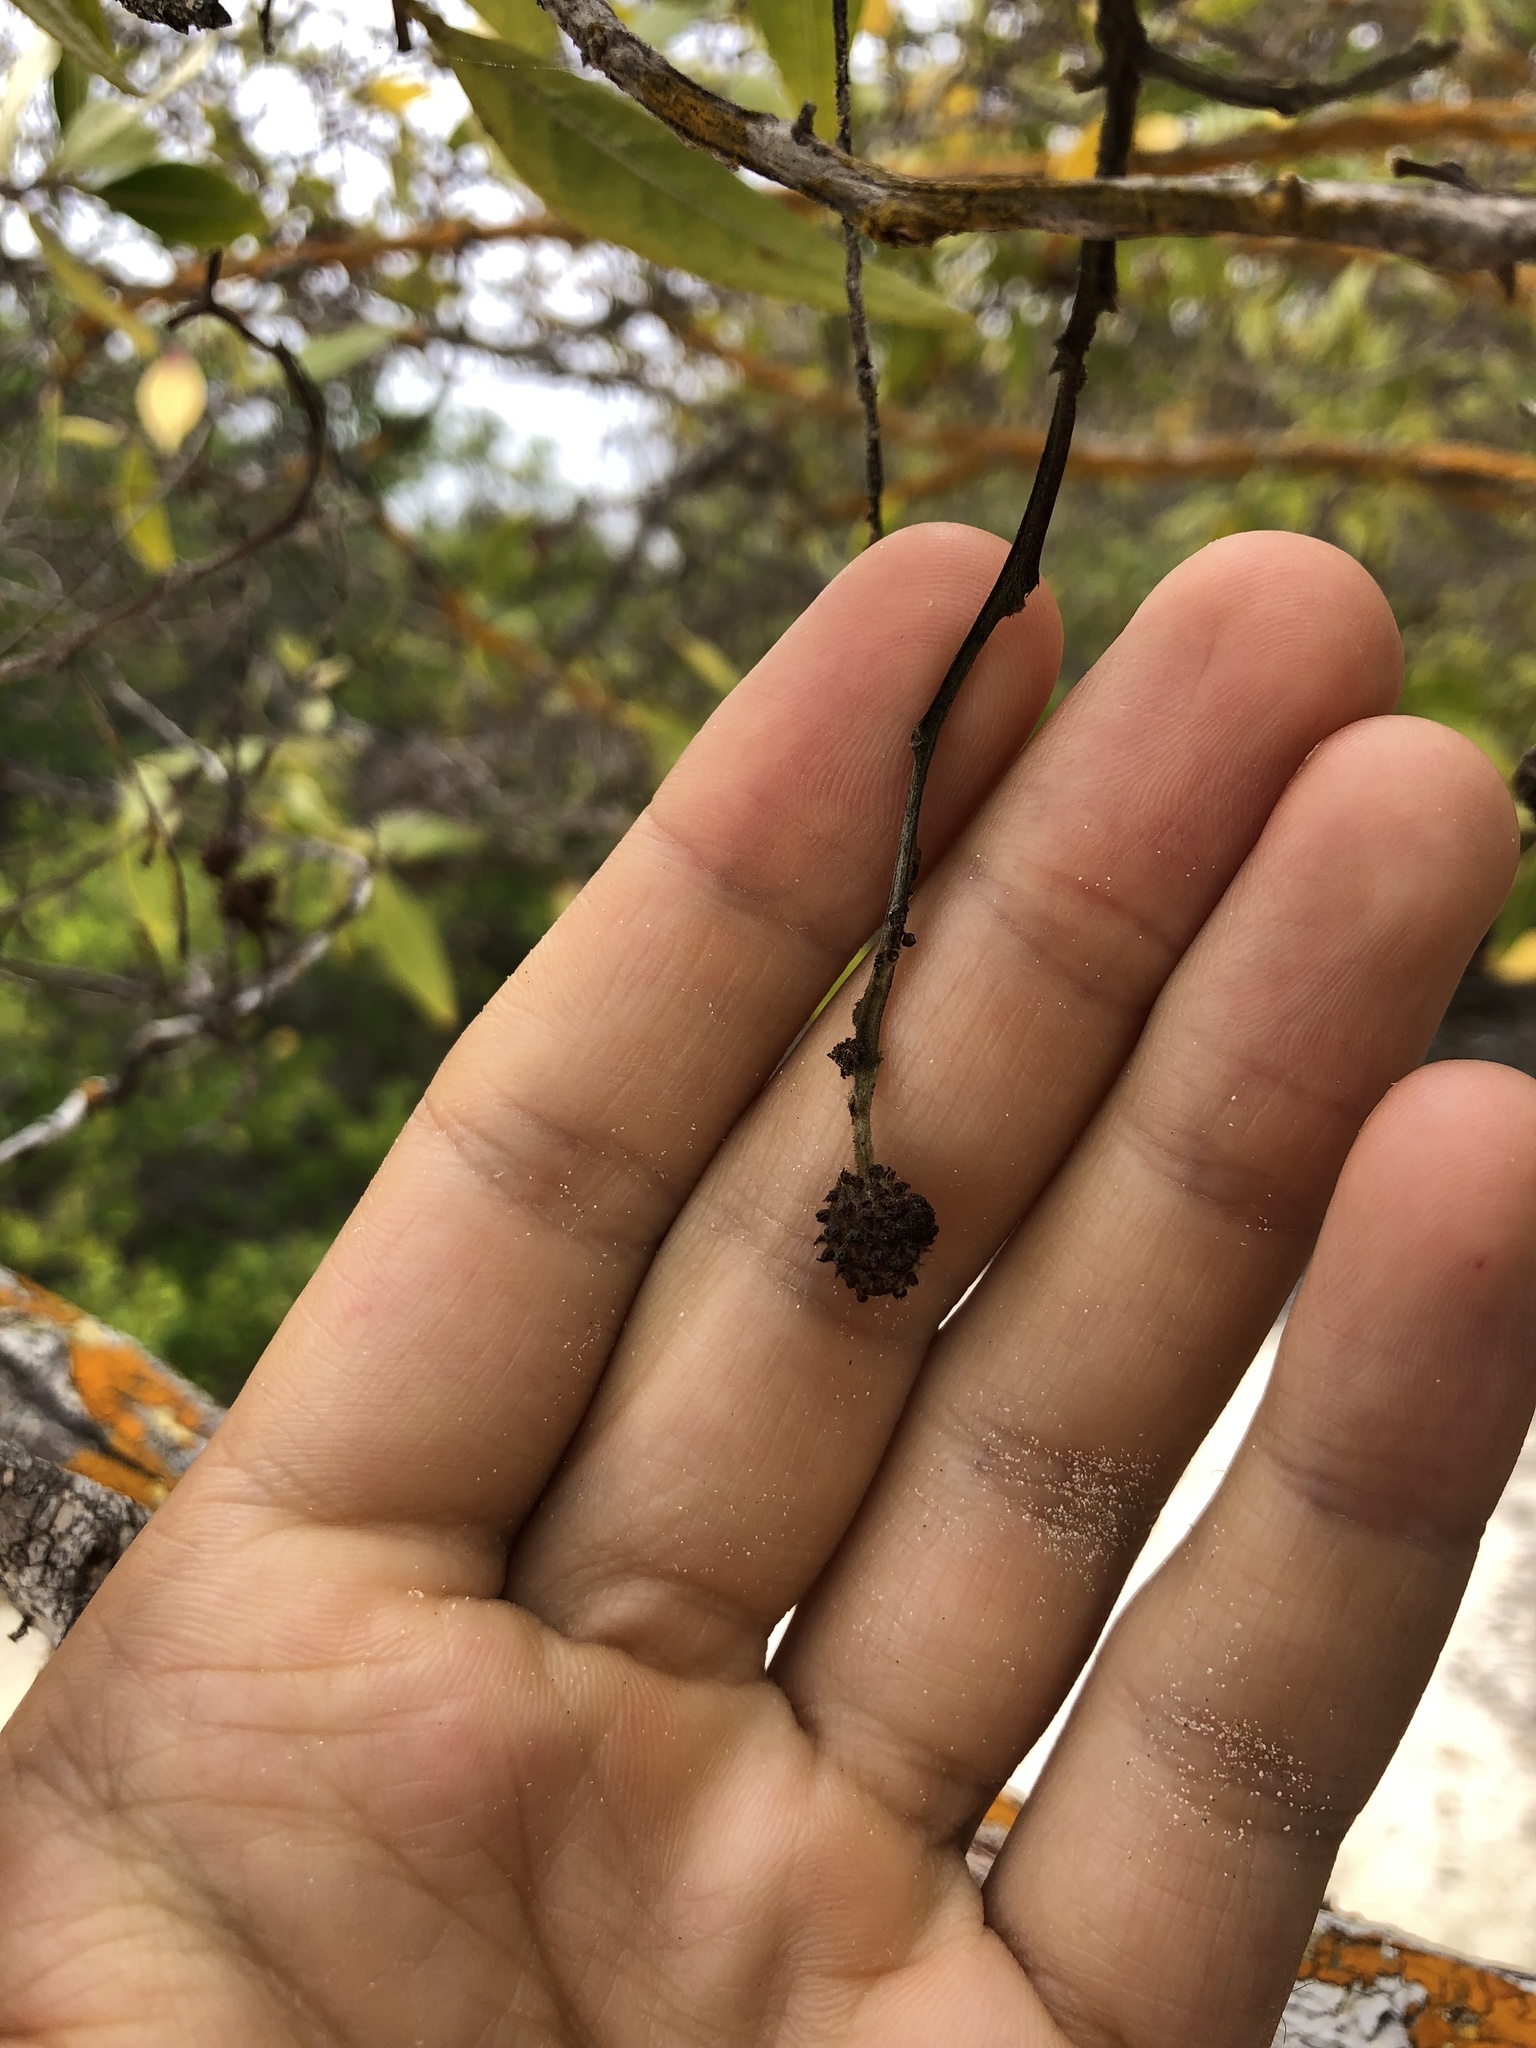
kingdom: Plantae
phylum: Tracheophyta
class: Magnoliopsida
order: Myrtales
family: Combretaceae
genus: Conocarpus
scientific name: Conocarpus erectus
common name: Button mangrove
